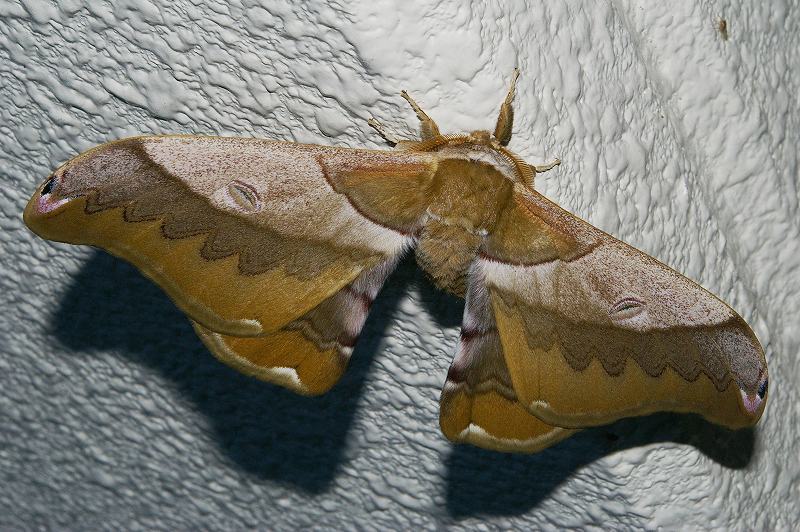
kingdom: Animalia
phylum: Arthropoda
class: Insecta
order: Lepidoptera
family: Saturniidae
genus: Saturnia
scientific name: Saturnia japonica
